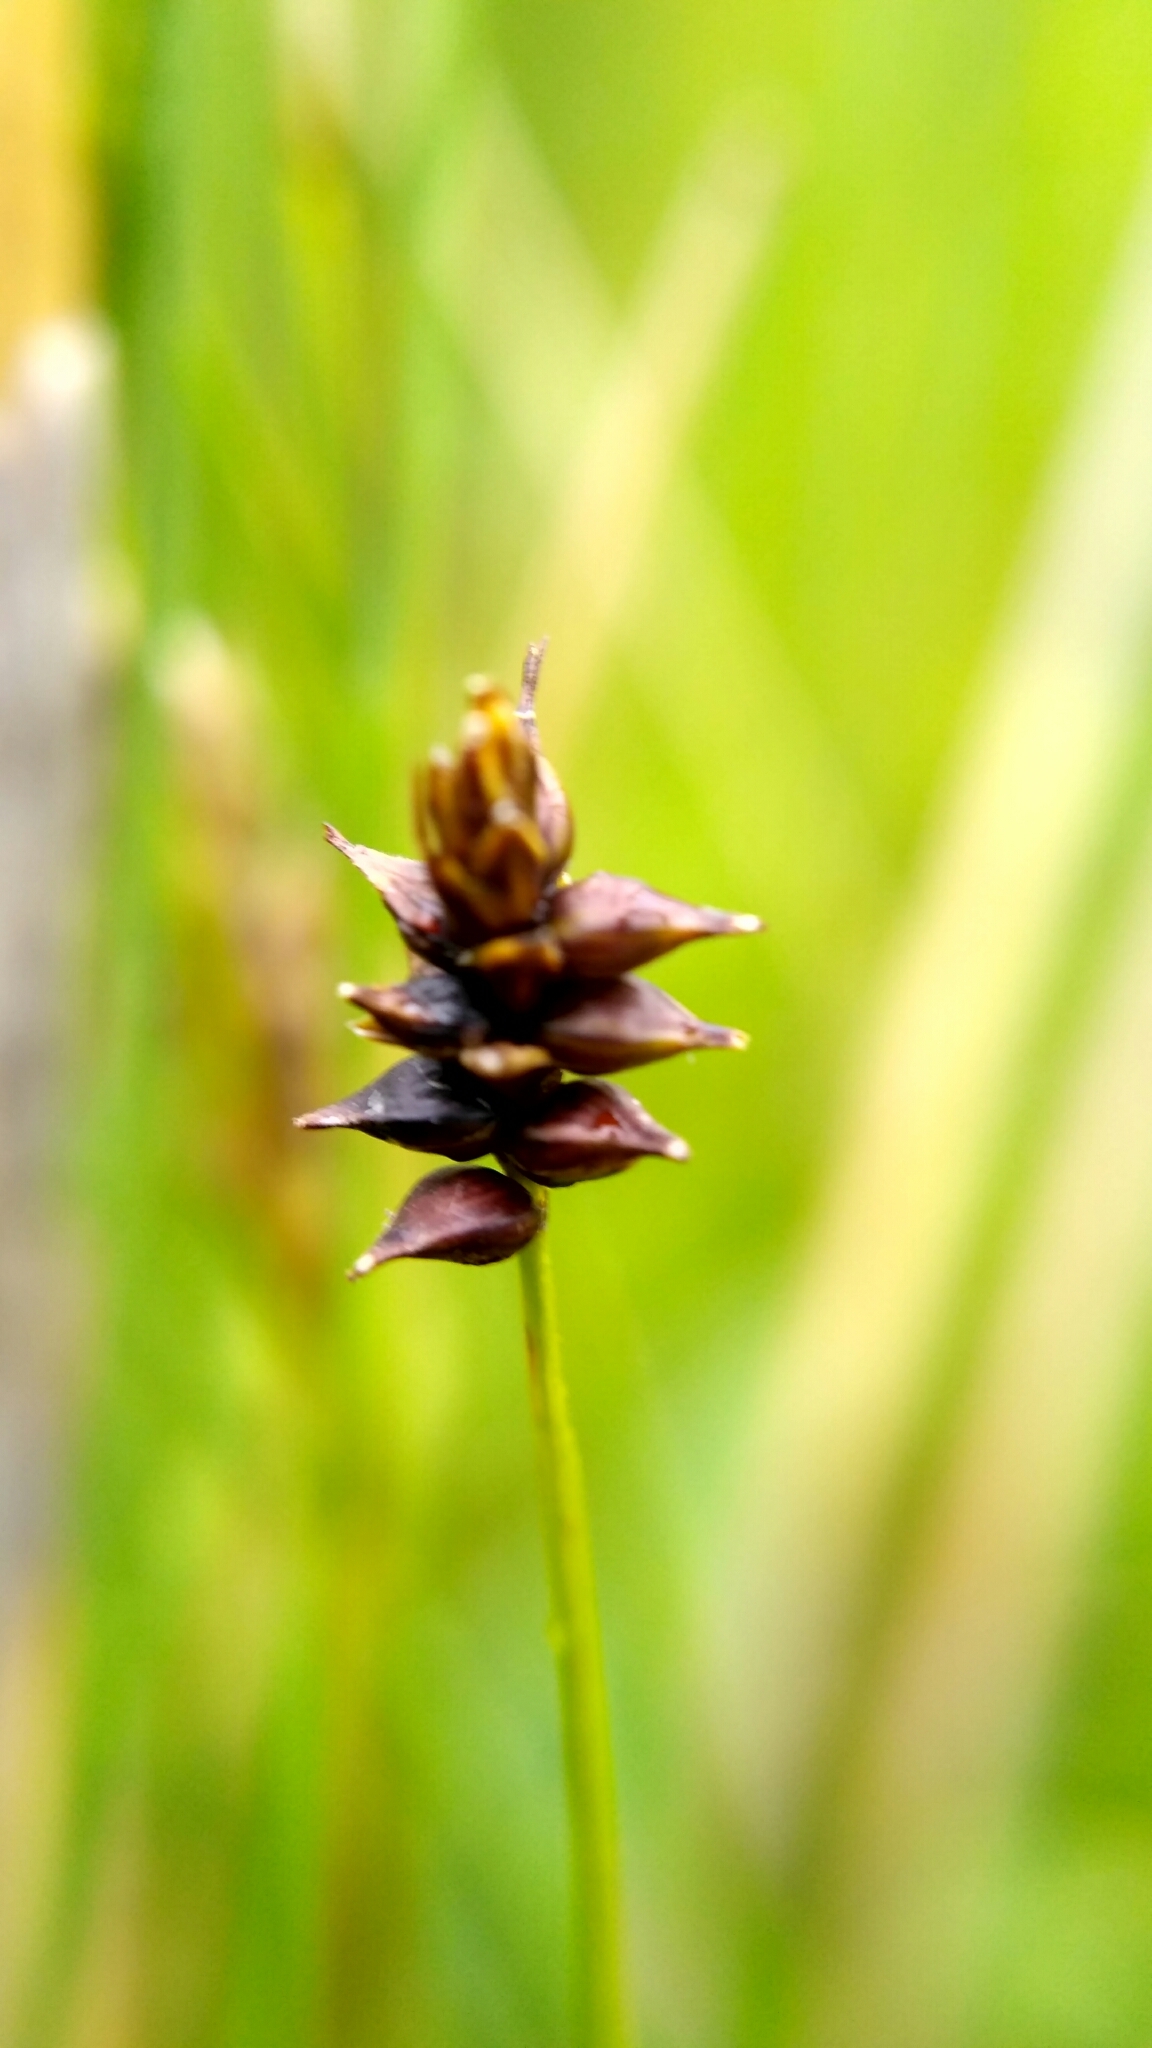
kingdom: Plantae
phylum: Tracheophyta
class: Liliopsida
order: Poales
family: Cyperaceae
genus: Carex
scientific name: Carex dioica
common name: Dioecious sedge
